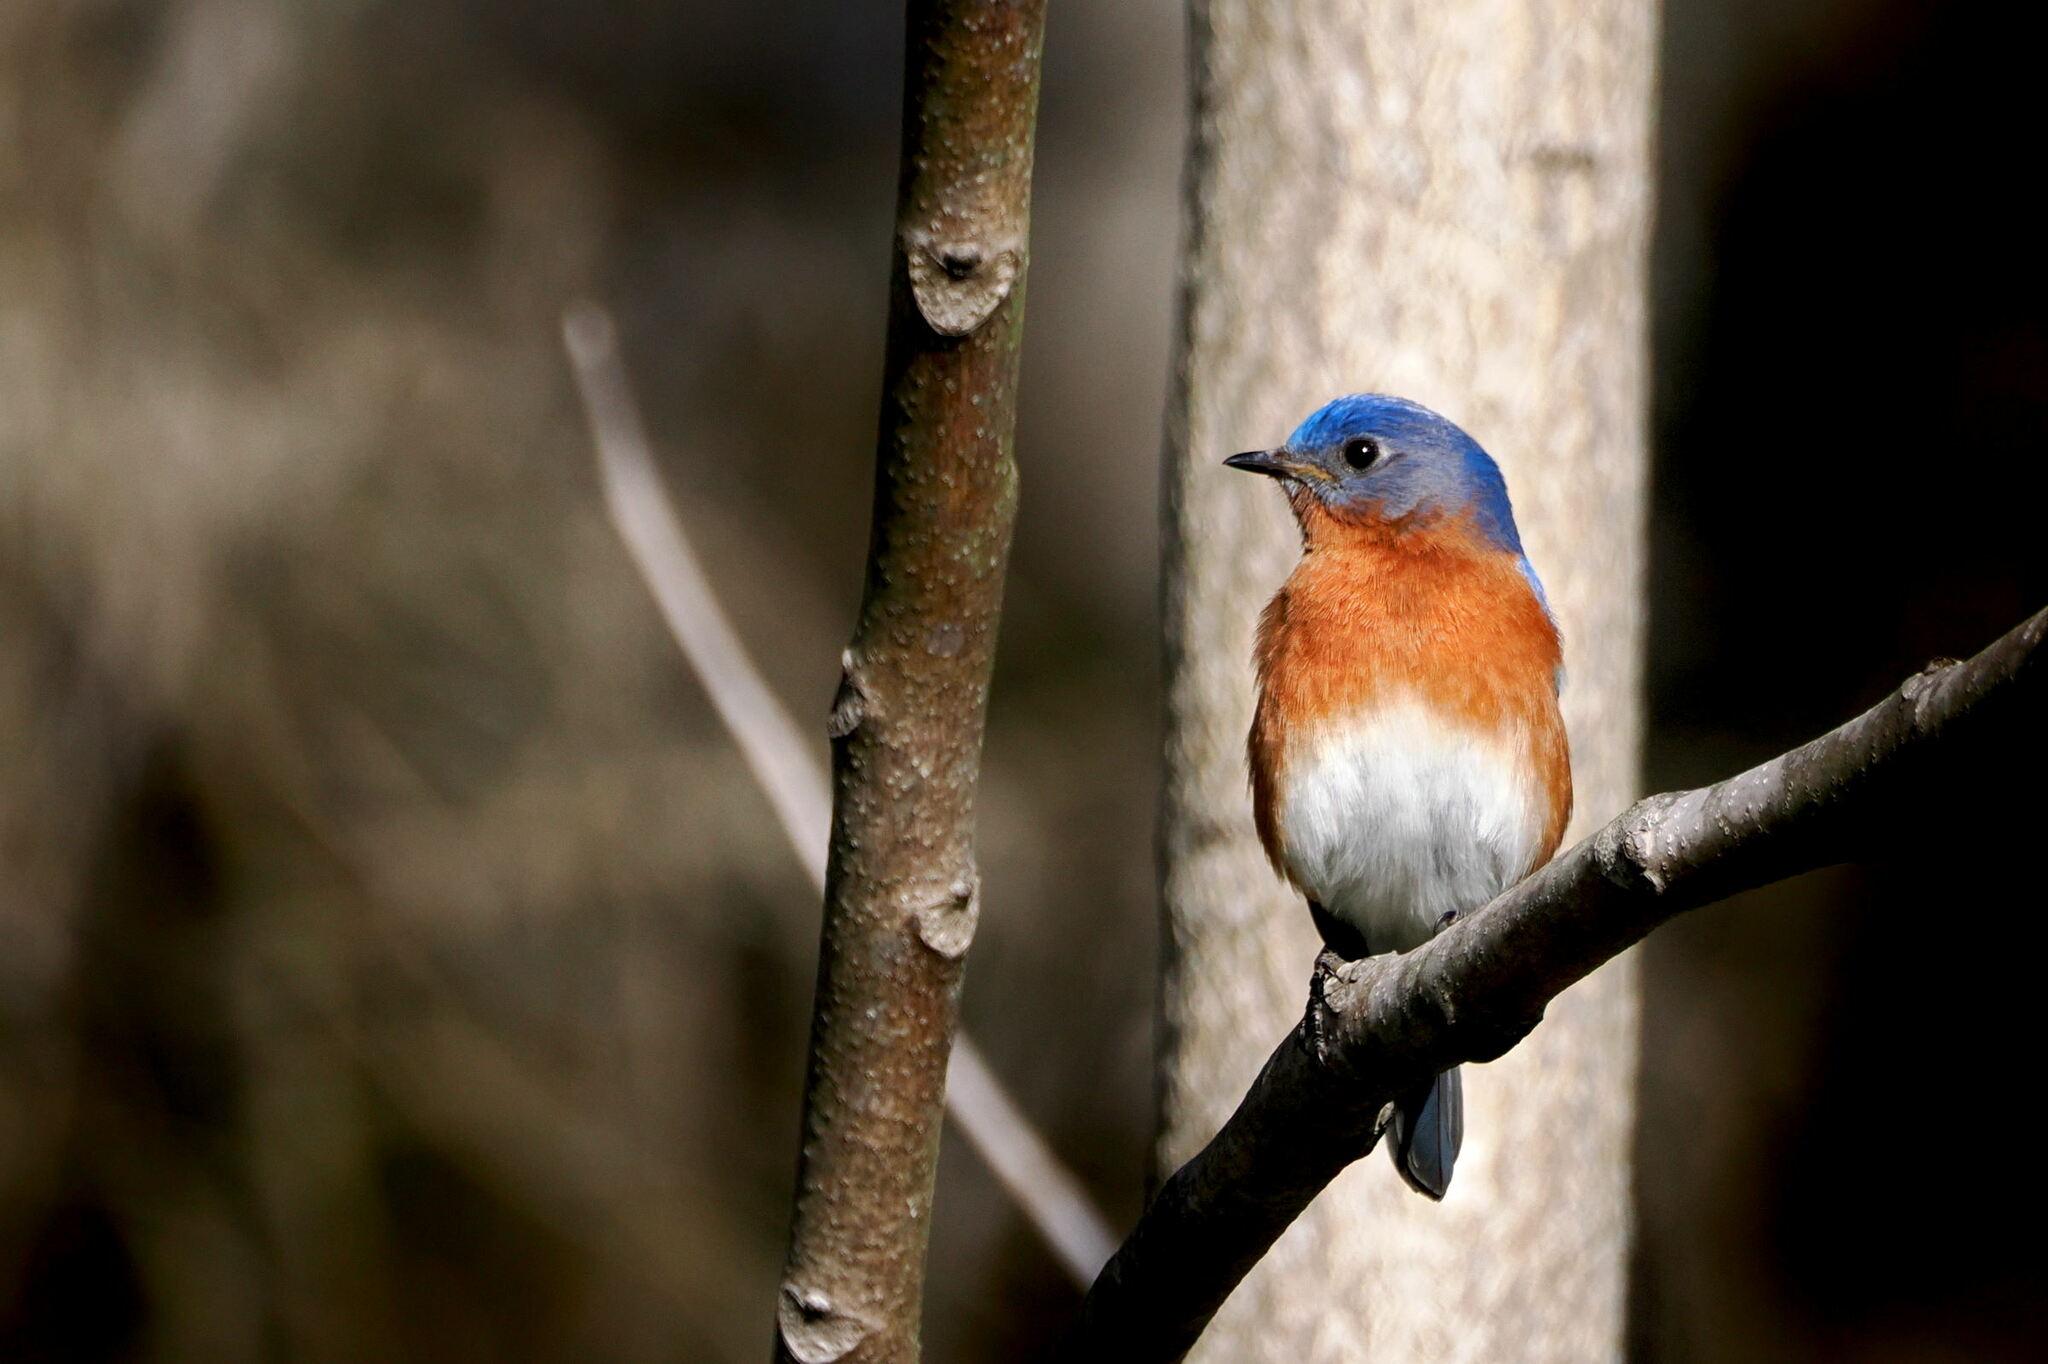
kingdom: Animalia
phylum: Chordata
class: Aves
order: Passeriformes
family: Turdidae
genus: Sialia
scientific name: Sialia sialis
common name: Eastern bluebird
